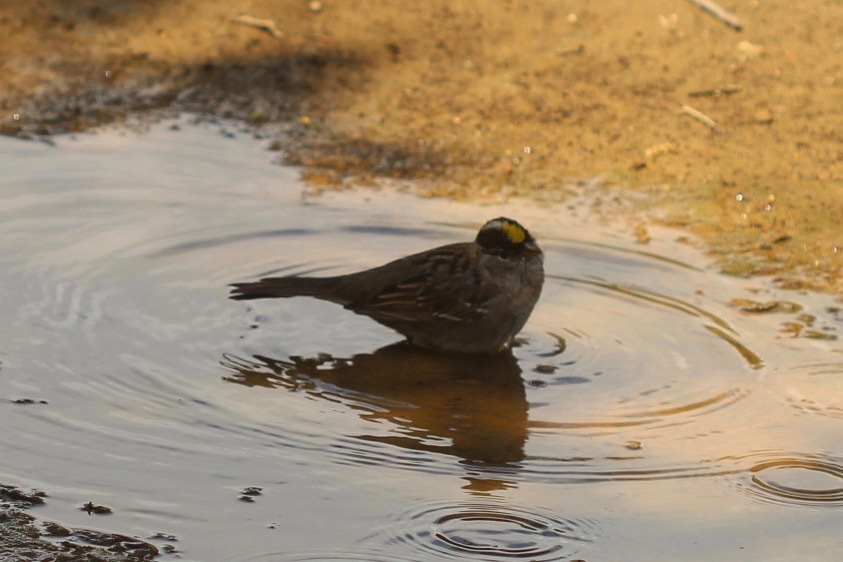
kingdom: Animalia
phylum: Chordata
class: Aves
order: Passeriformes
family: Passerellidae
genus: Zonotrichia
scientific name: Zonotrichia atricapilla
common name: Golden-crowned sparrow
